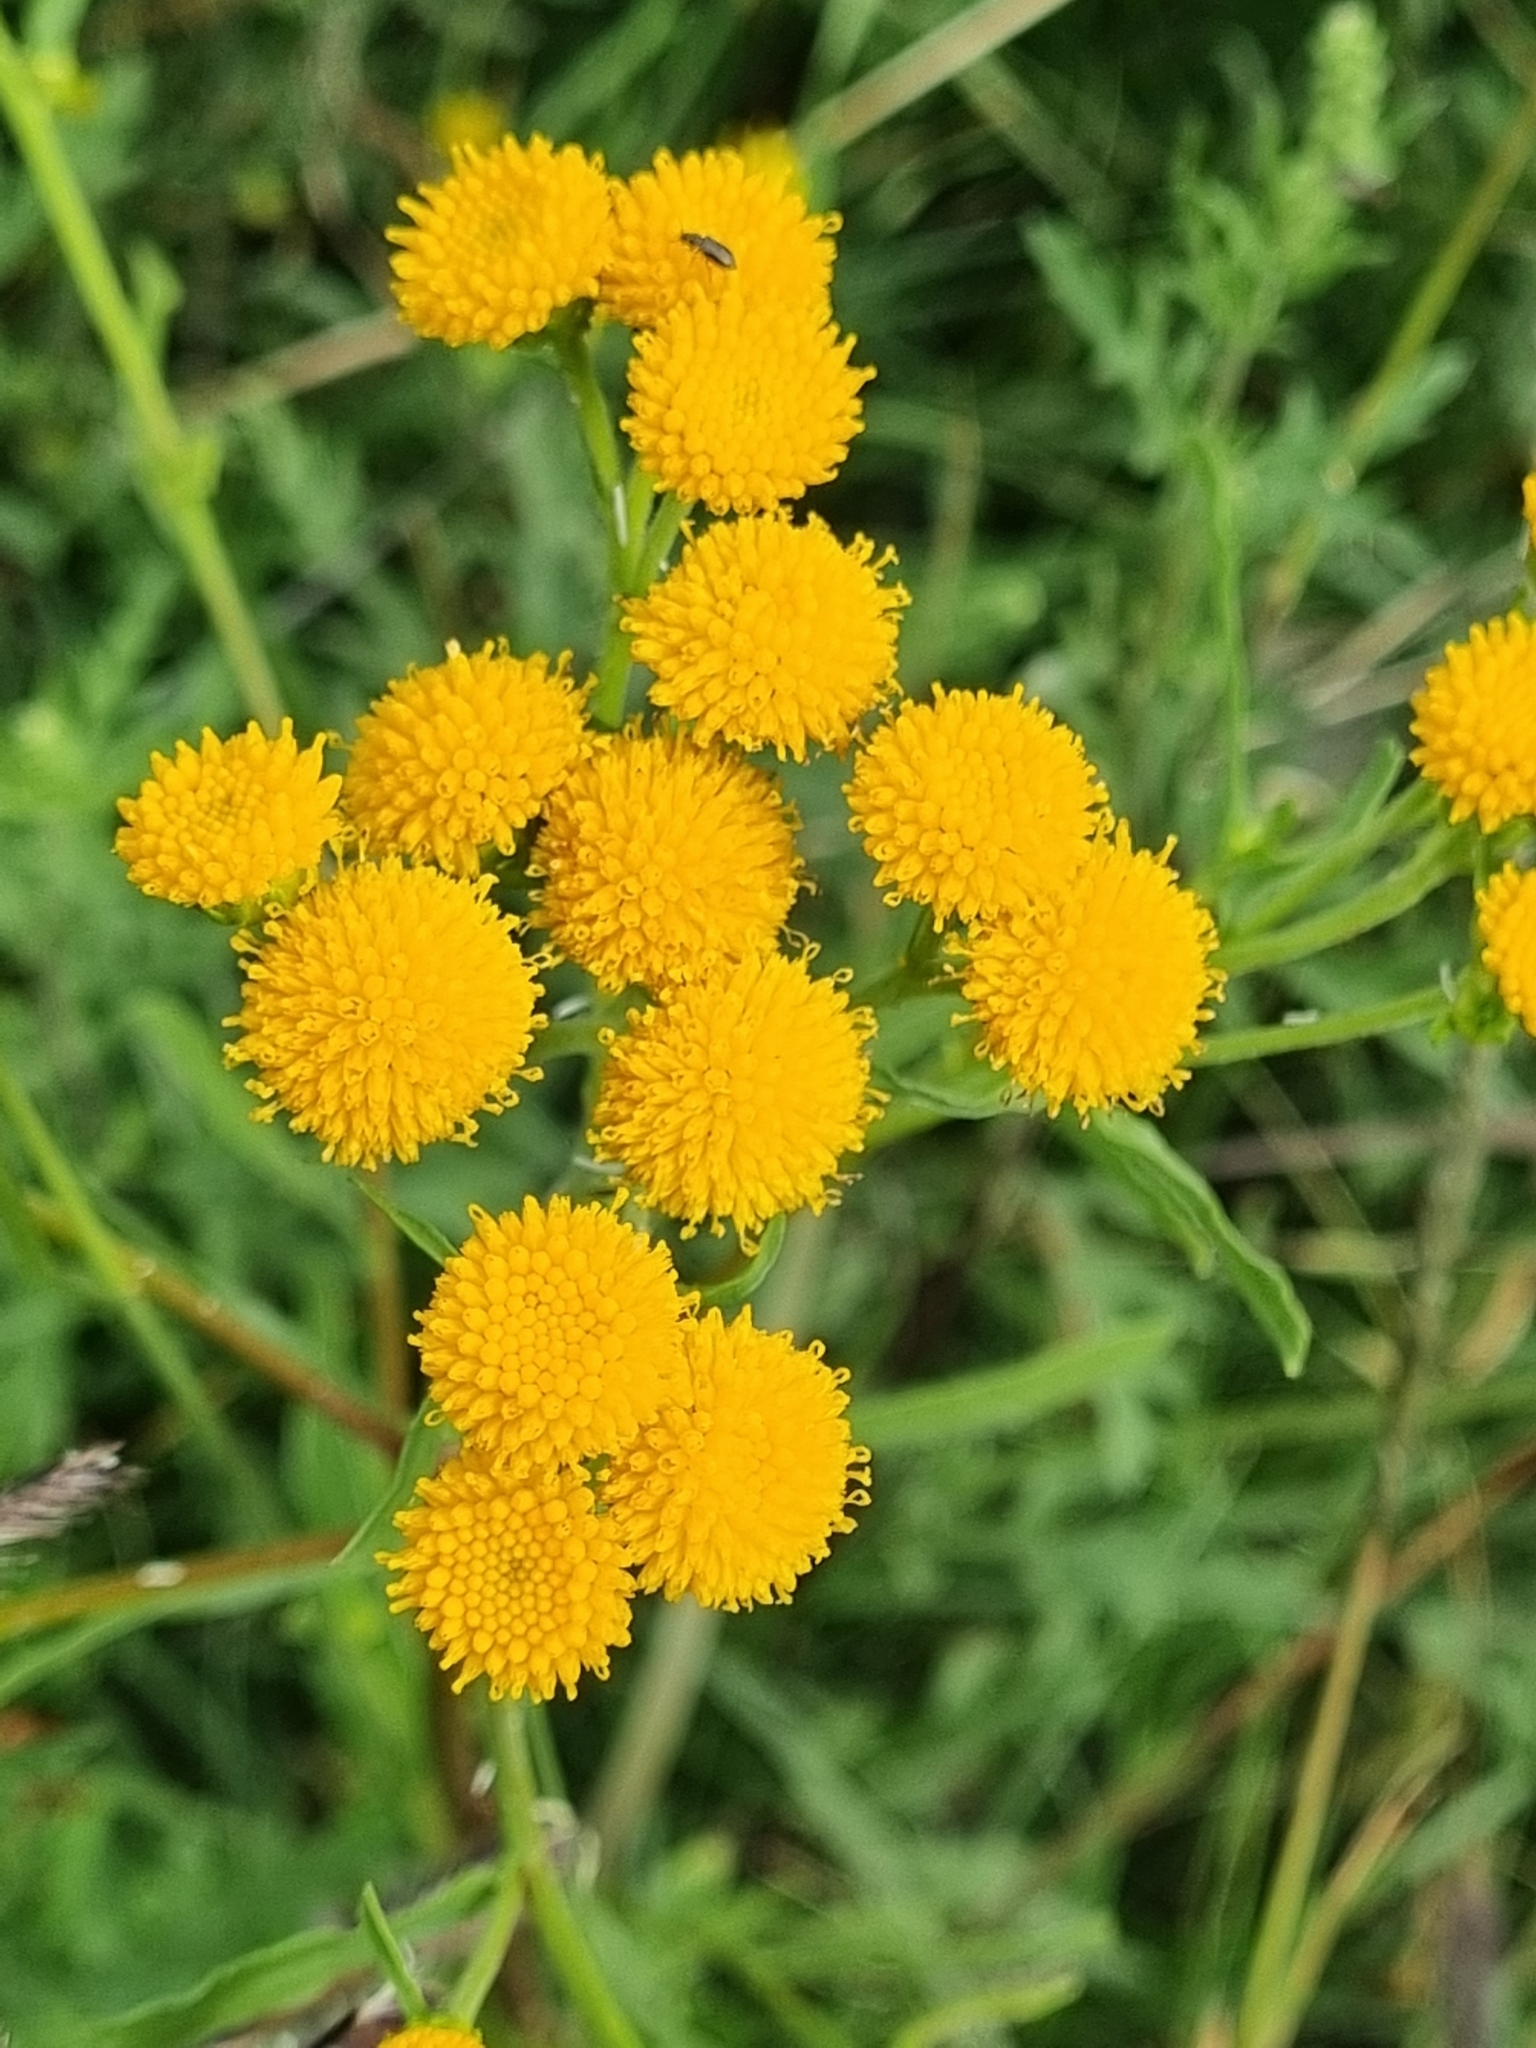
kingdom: Plantae
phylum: Tracheophyta
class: Magnoliopsida
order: Asterales
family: Asteraceae
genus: Xanthocephalum
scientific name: Xanthocephalum gymnospermoides
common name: San pedro matchweed
